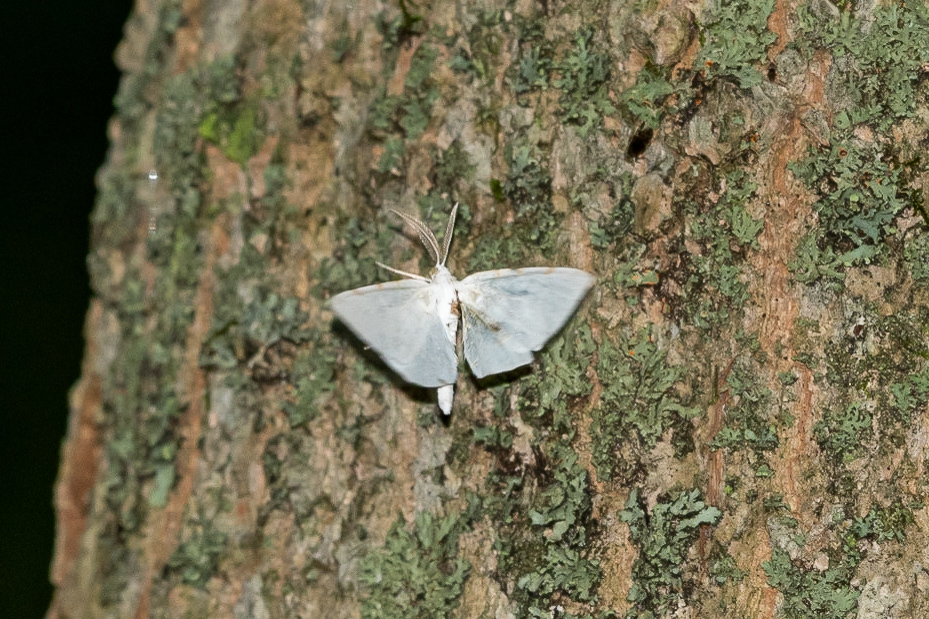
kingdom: Animalia
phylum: Arthropoda
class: Insecta
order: Lepidoptera
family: Geometridae
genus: Macaria
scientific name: Macaria pustularia
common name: Lesser maple spanworm moth
